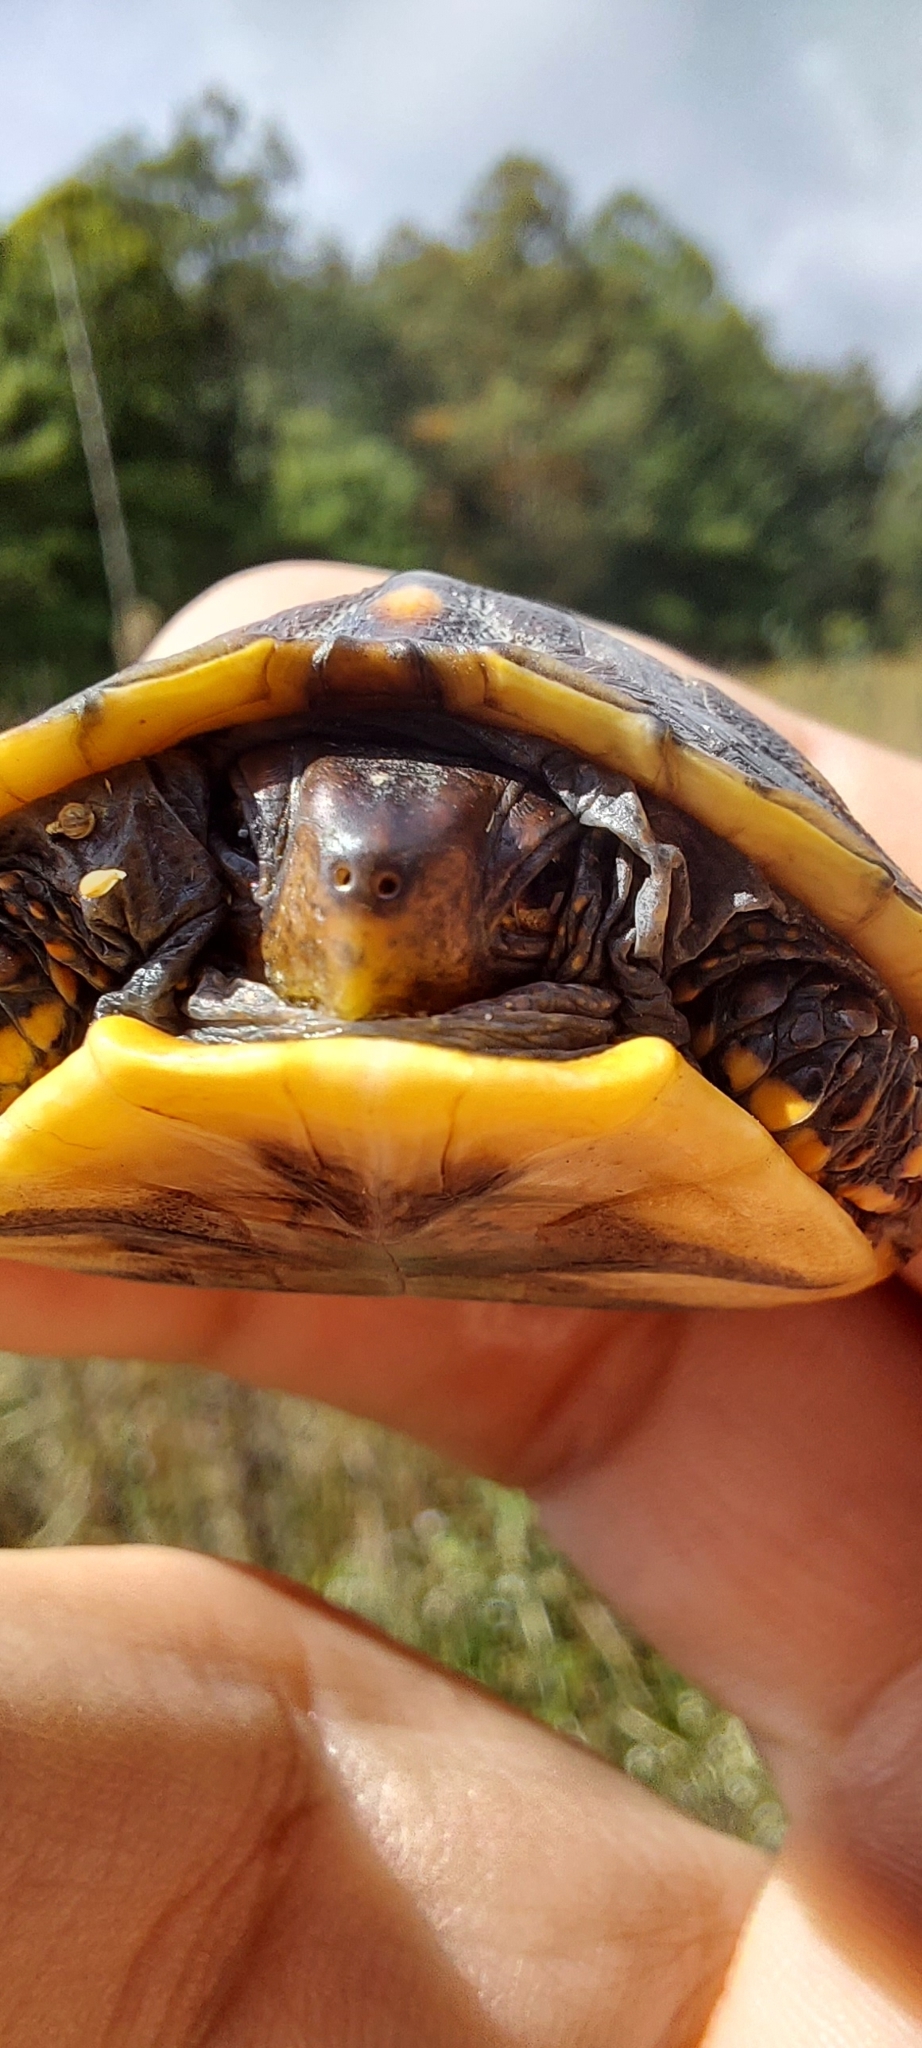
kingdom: Animalia
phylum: Chordata
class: Testudines
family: Emydidae
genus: Terrapene
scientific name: Terrapene carolina
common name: Common box turtle
